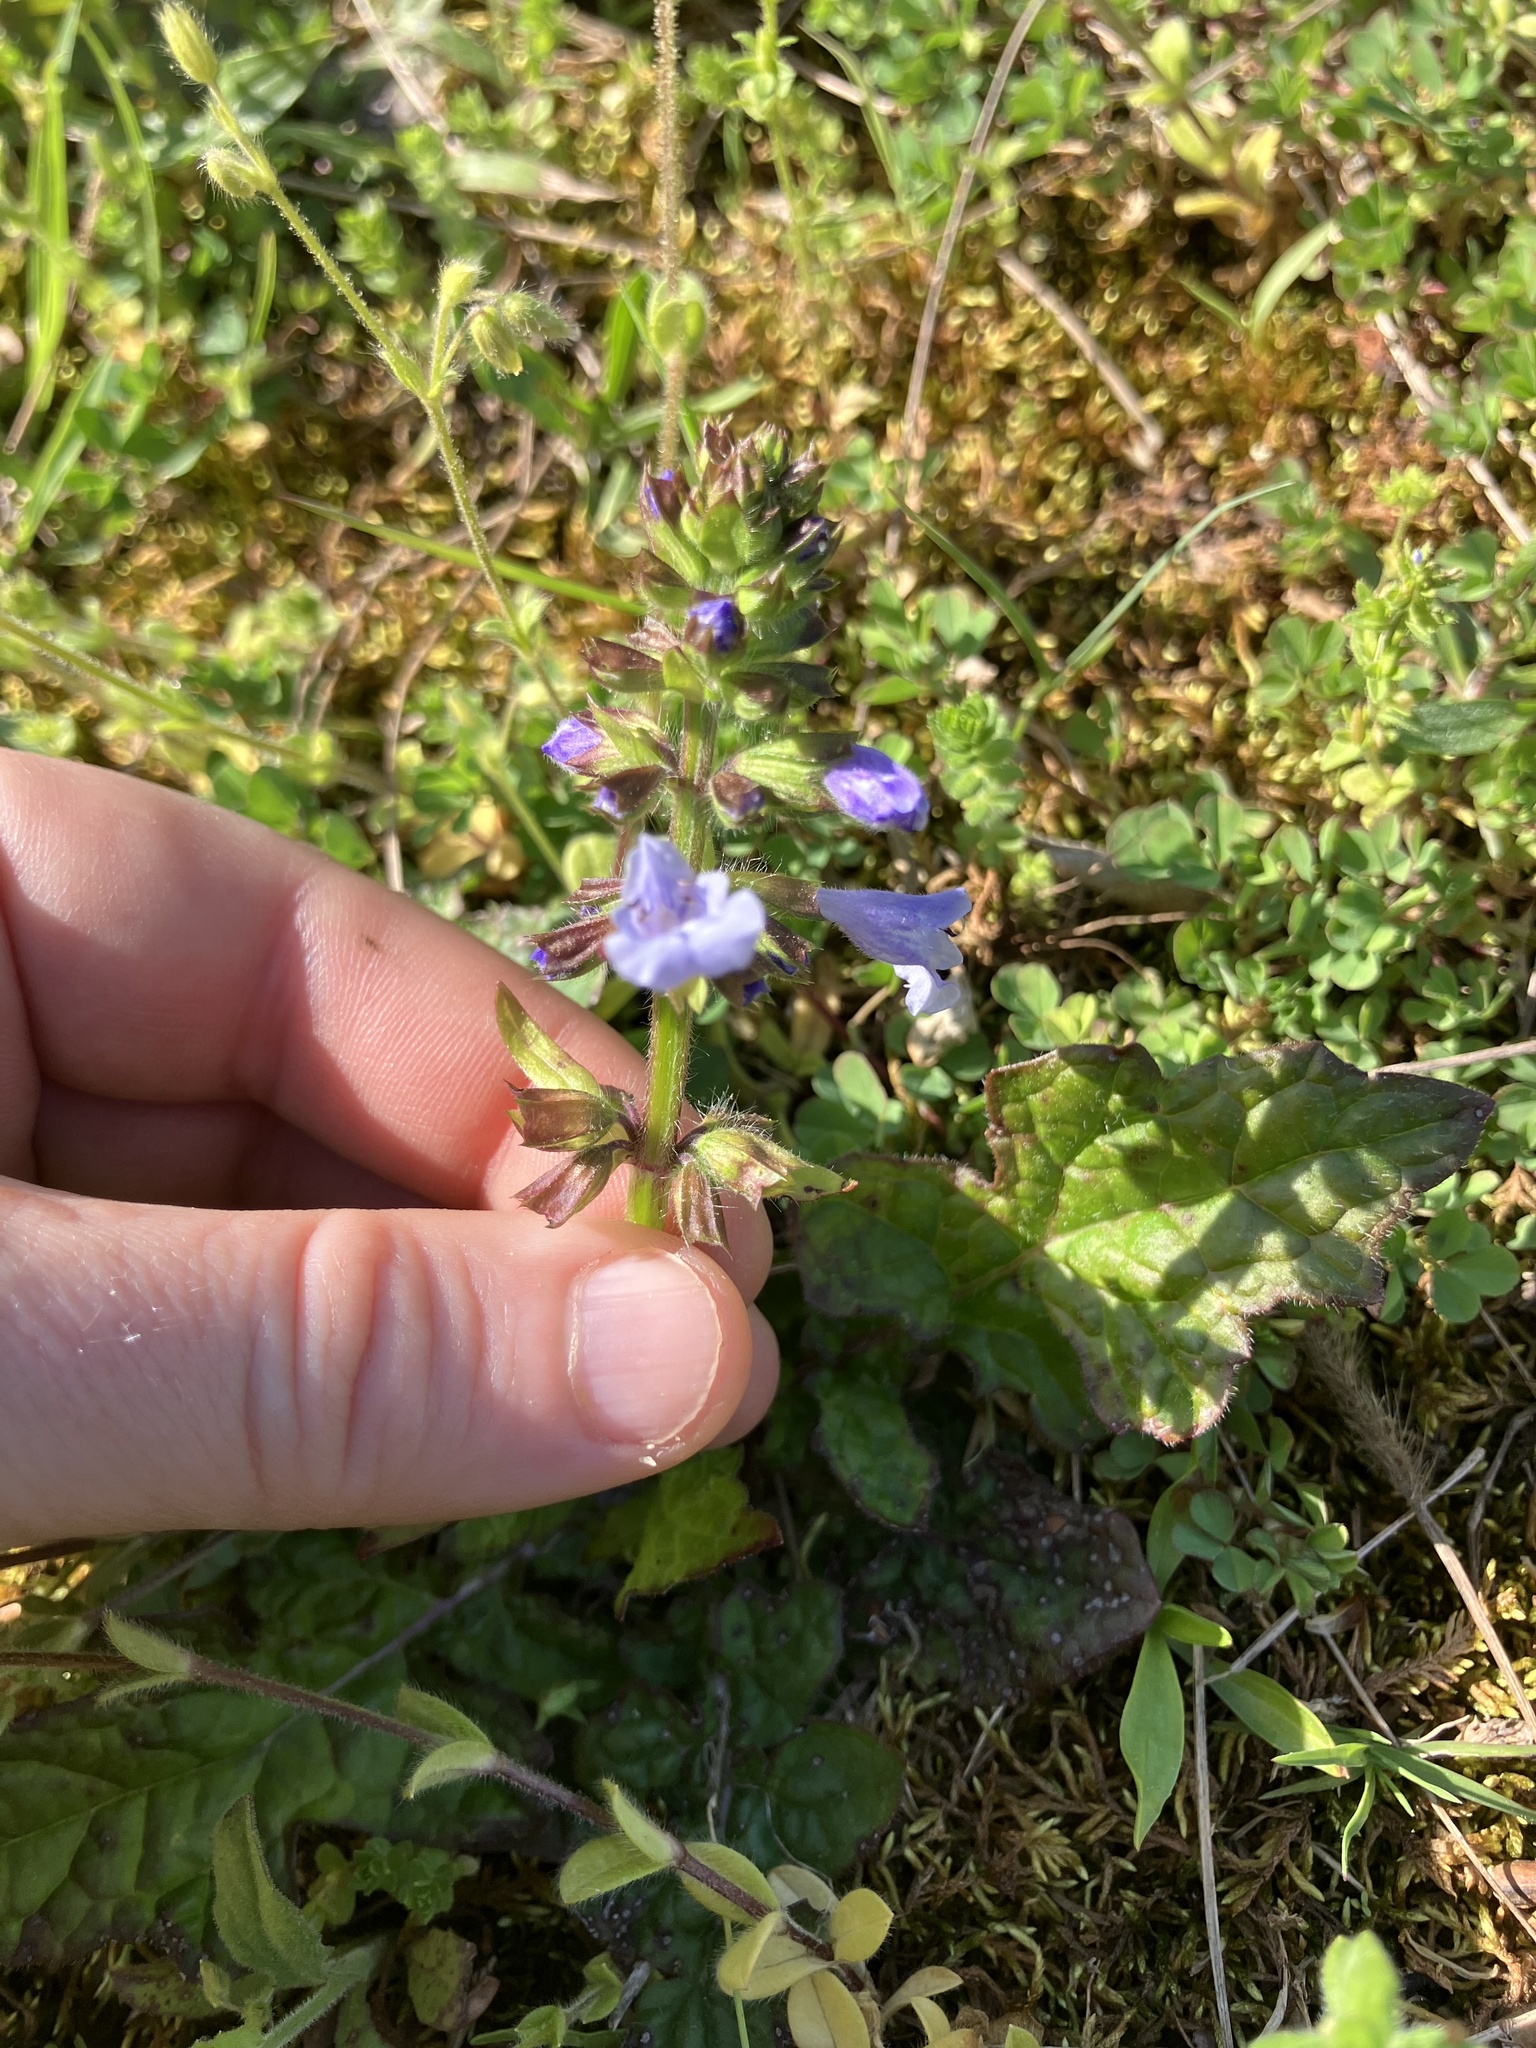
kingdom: Plantae
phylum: Tracheophyta
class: Magnoliopsida
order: Lamiales
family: Lamiaceae
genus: Salvia
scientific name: Salvia lyrata
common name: Cancerweed
